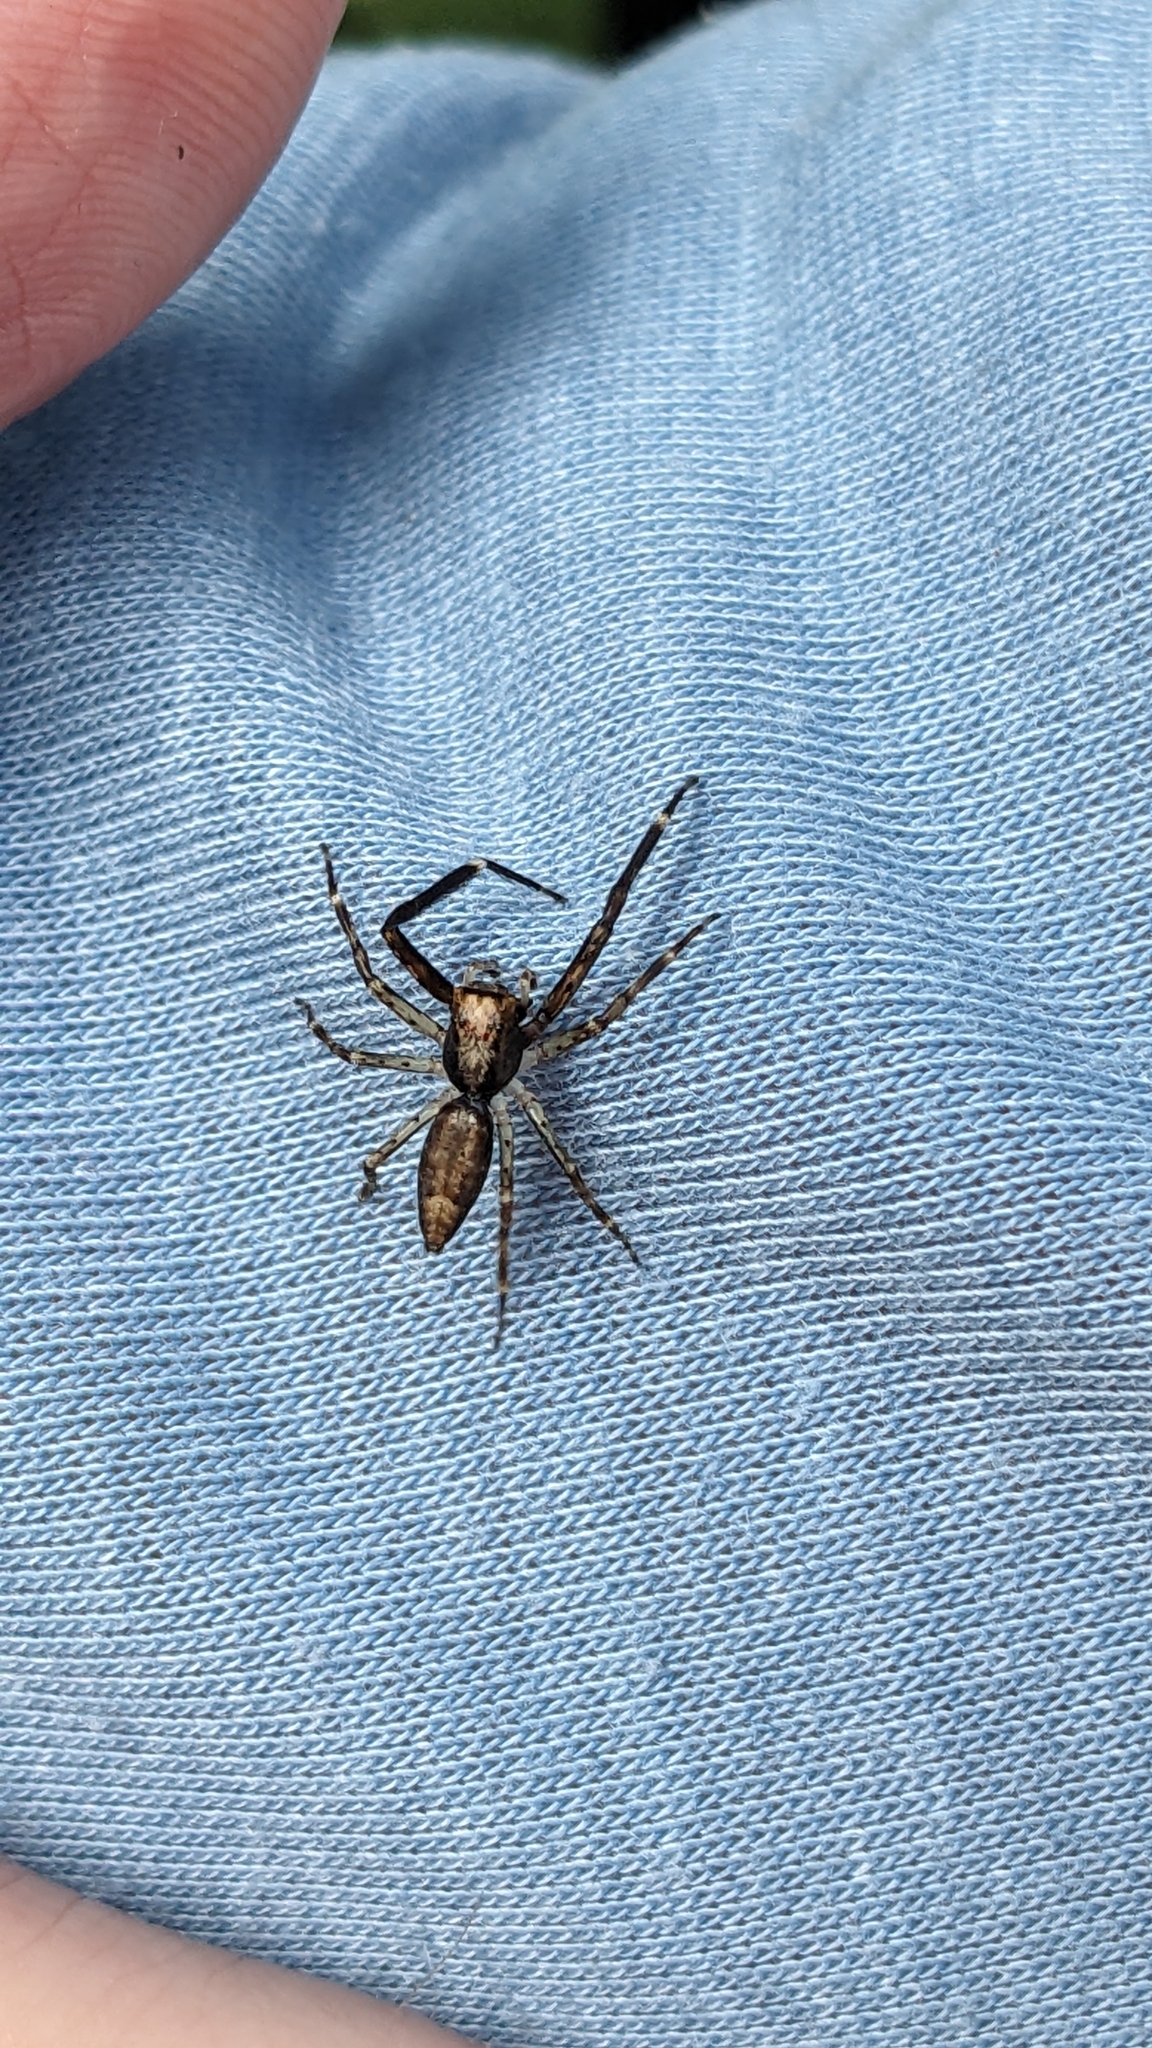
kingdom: Animalia
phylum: Arthropoda
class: Arachnida
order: Araneae
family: Salticidae
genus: Helpis
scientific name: Helpis minitabunda
